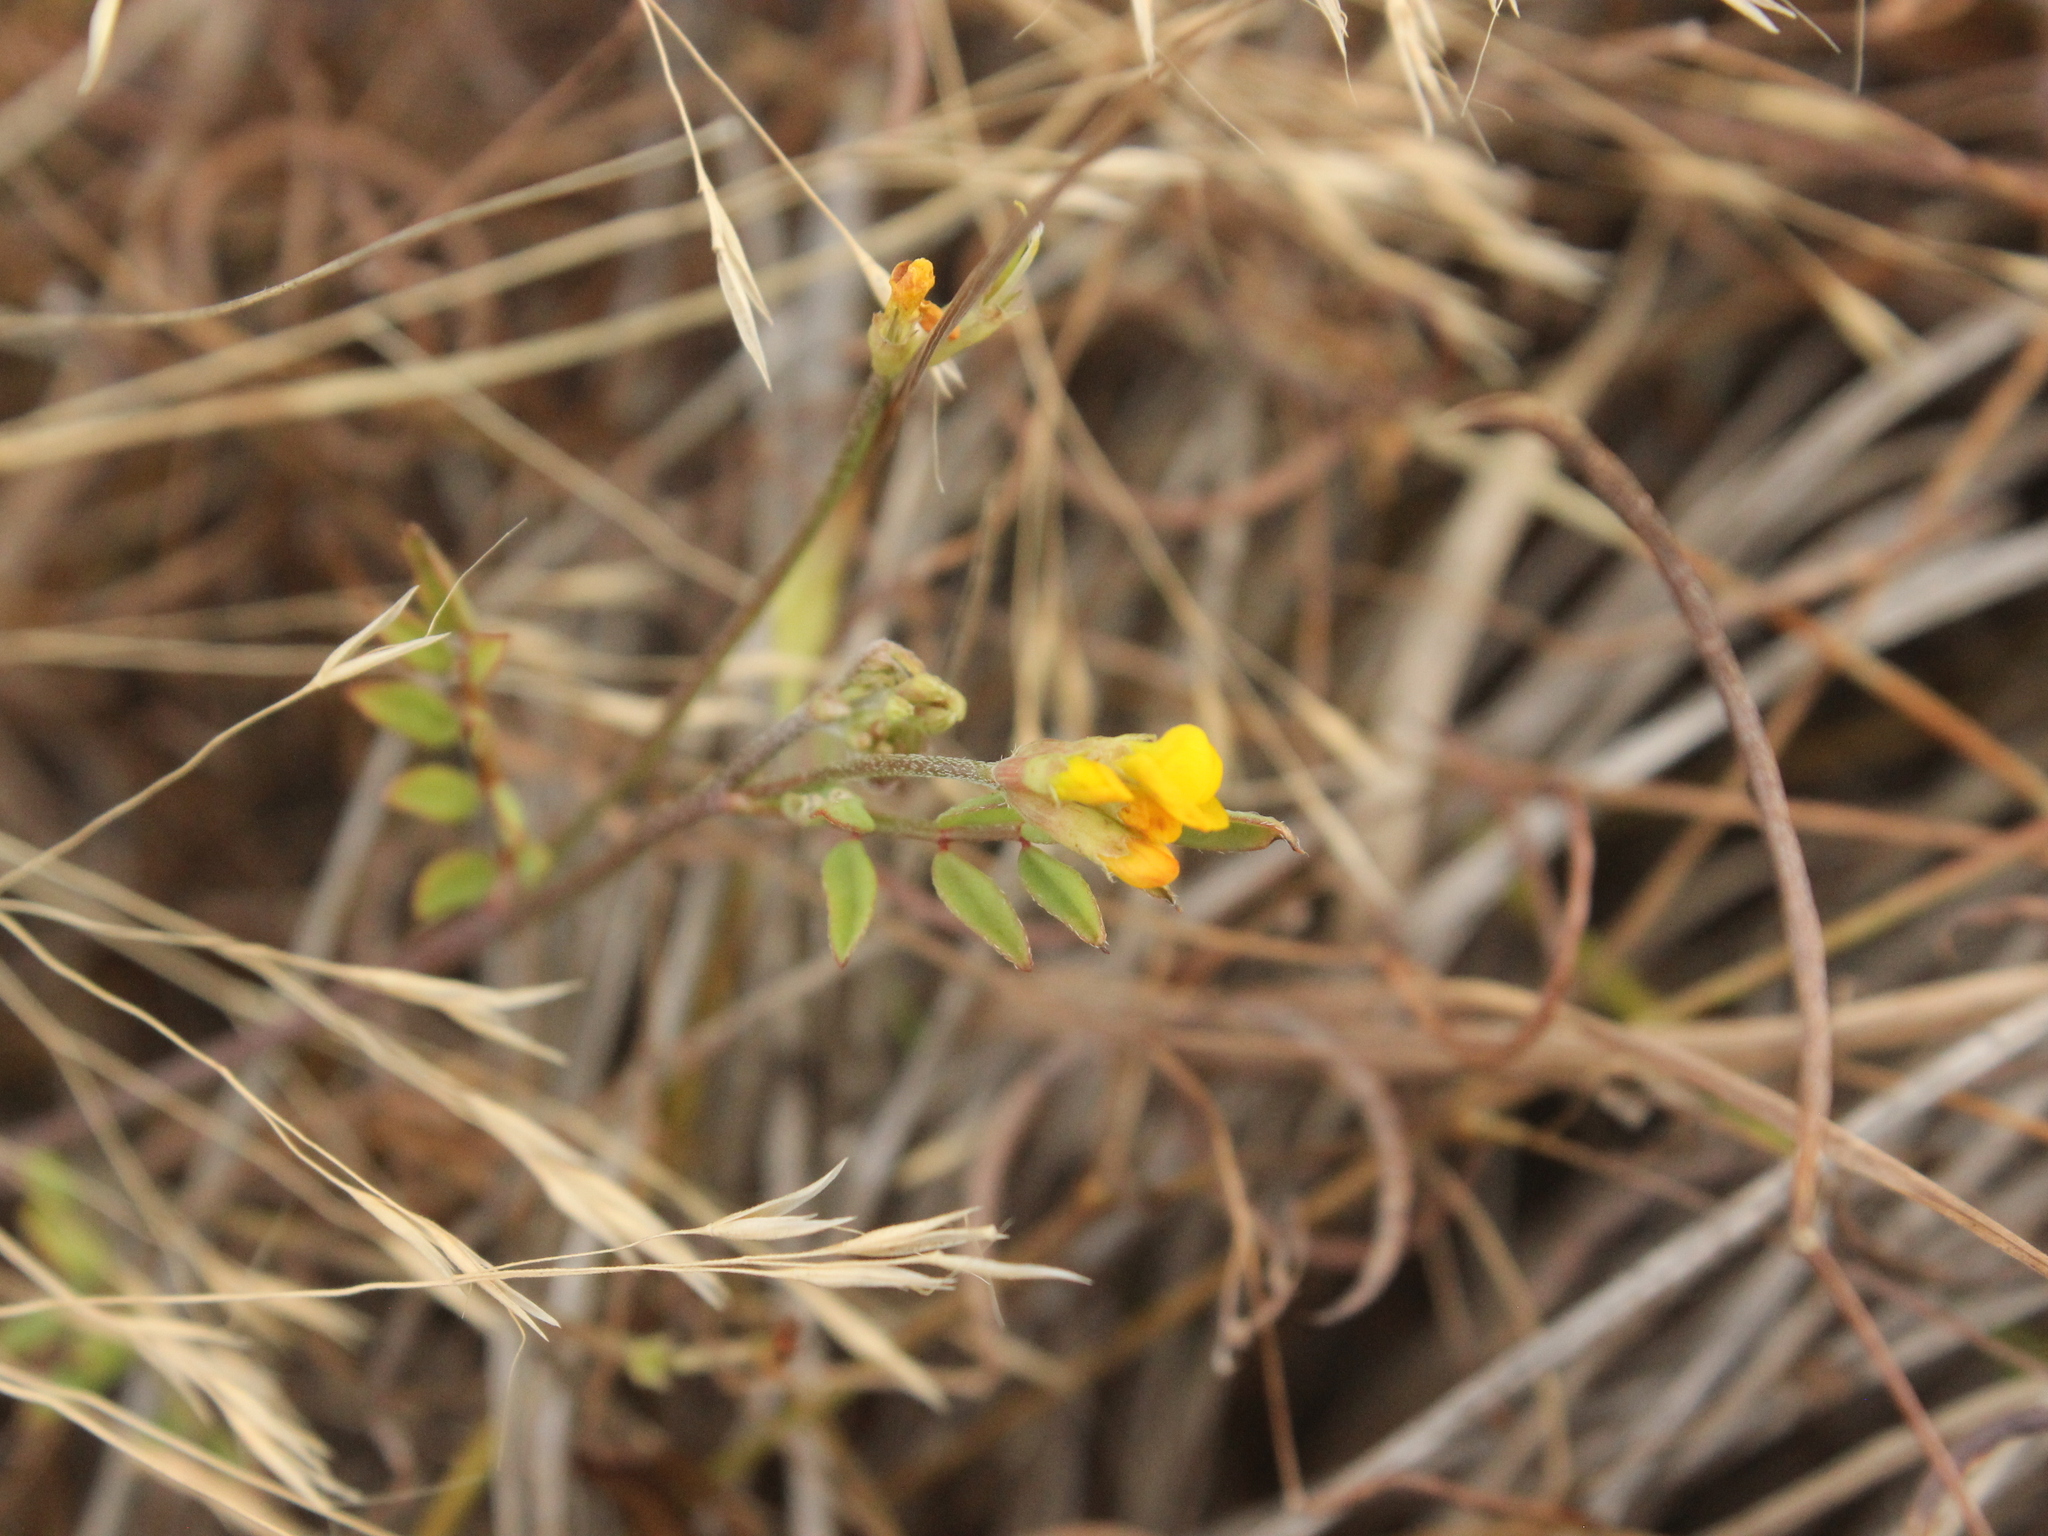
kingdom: Plantae
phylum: Tracheophyta
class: Magnoliopsida
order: Fabales
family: Fabaceae
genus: Ornithopus
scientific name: Ornithopus pinnatus
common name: Orange bird's-foot
